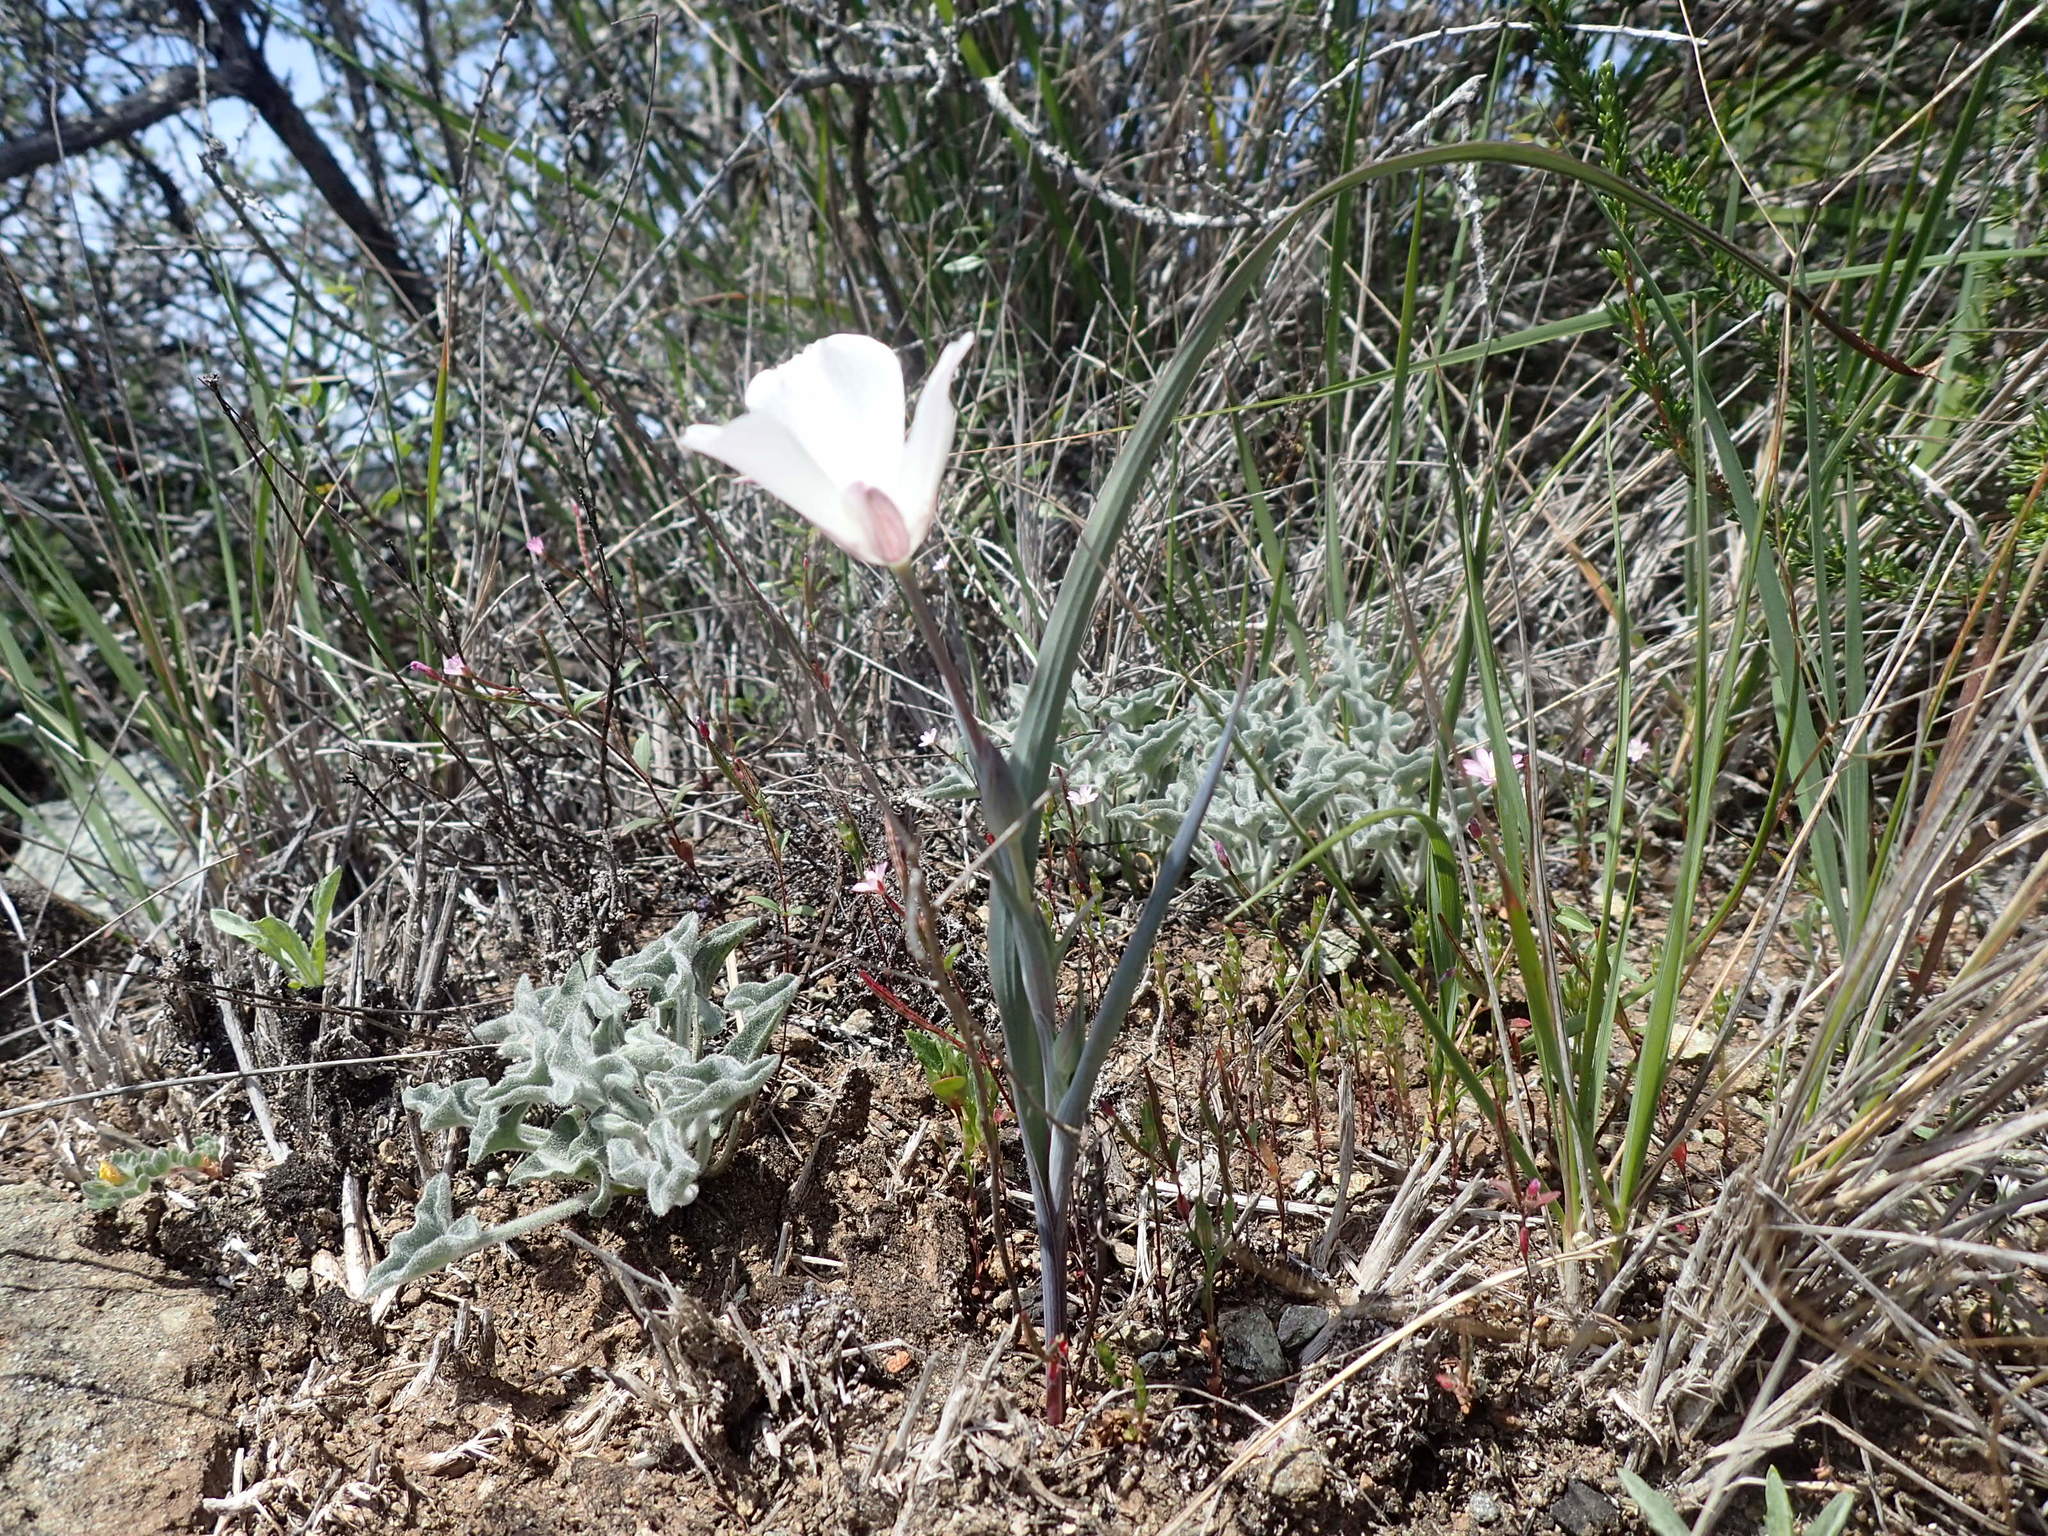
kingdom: Plantae
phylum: Tracheophyta
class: Liliopsida
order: Liliales
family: Liliaceae
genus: Calochortus
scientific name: Calochortus umbellatus
